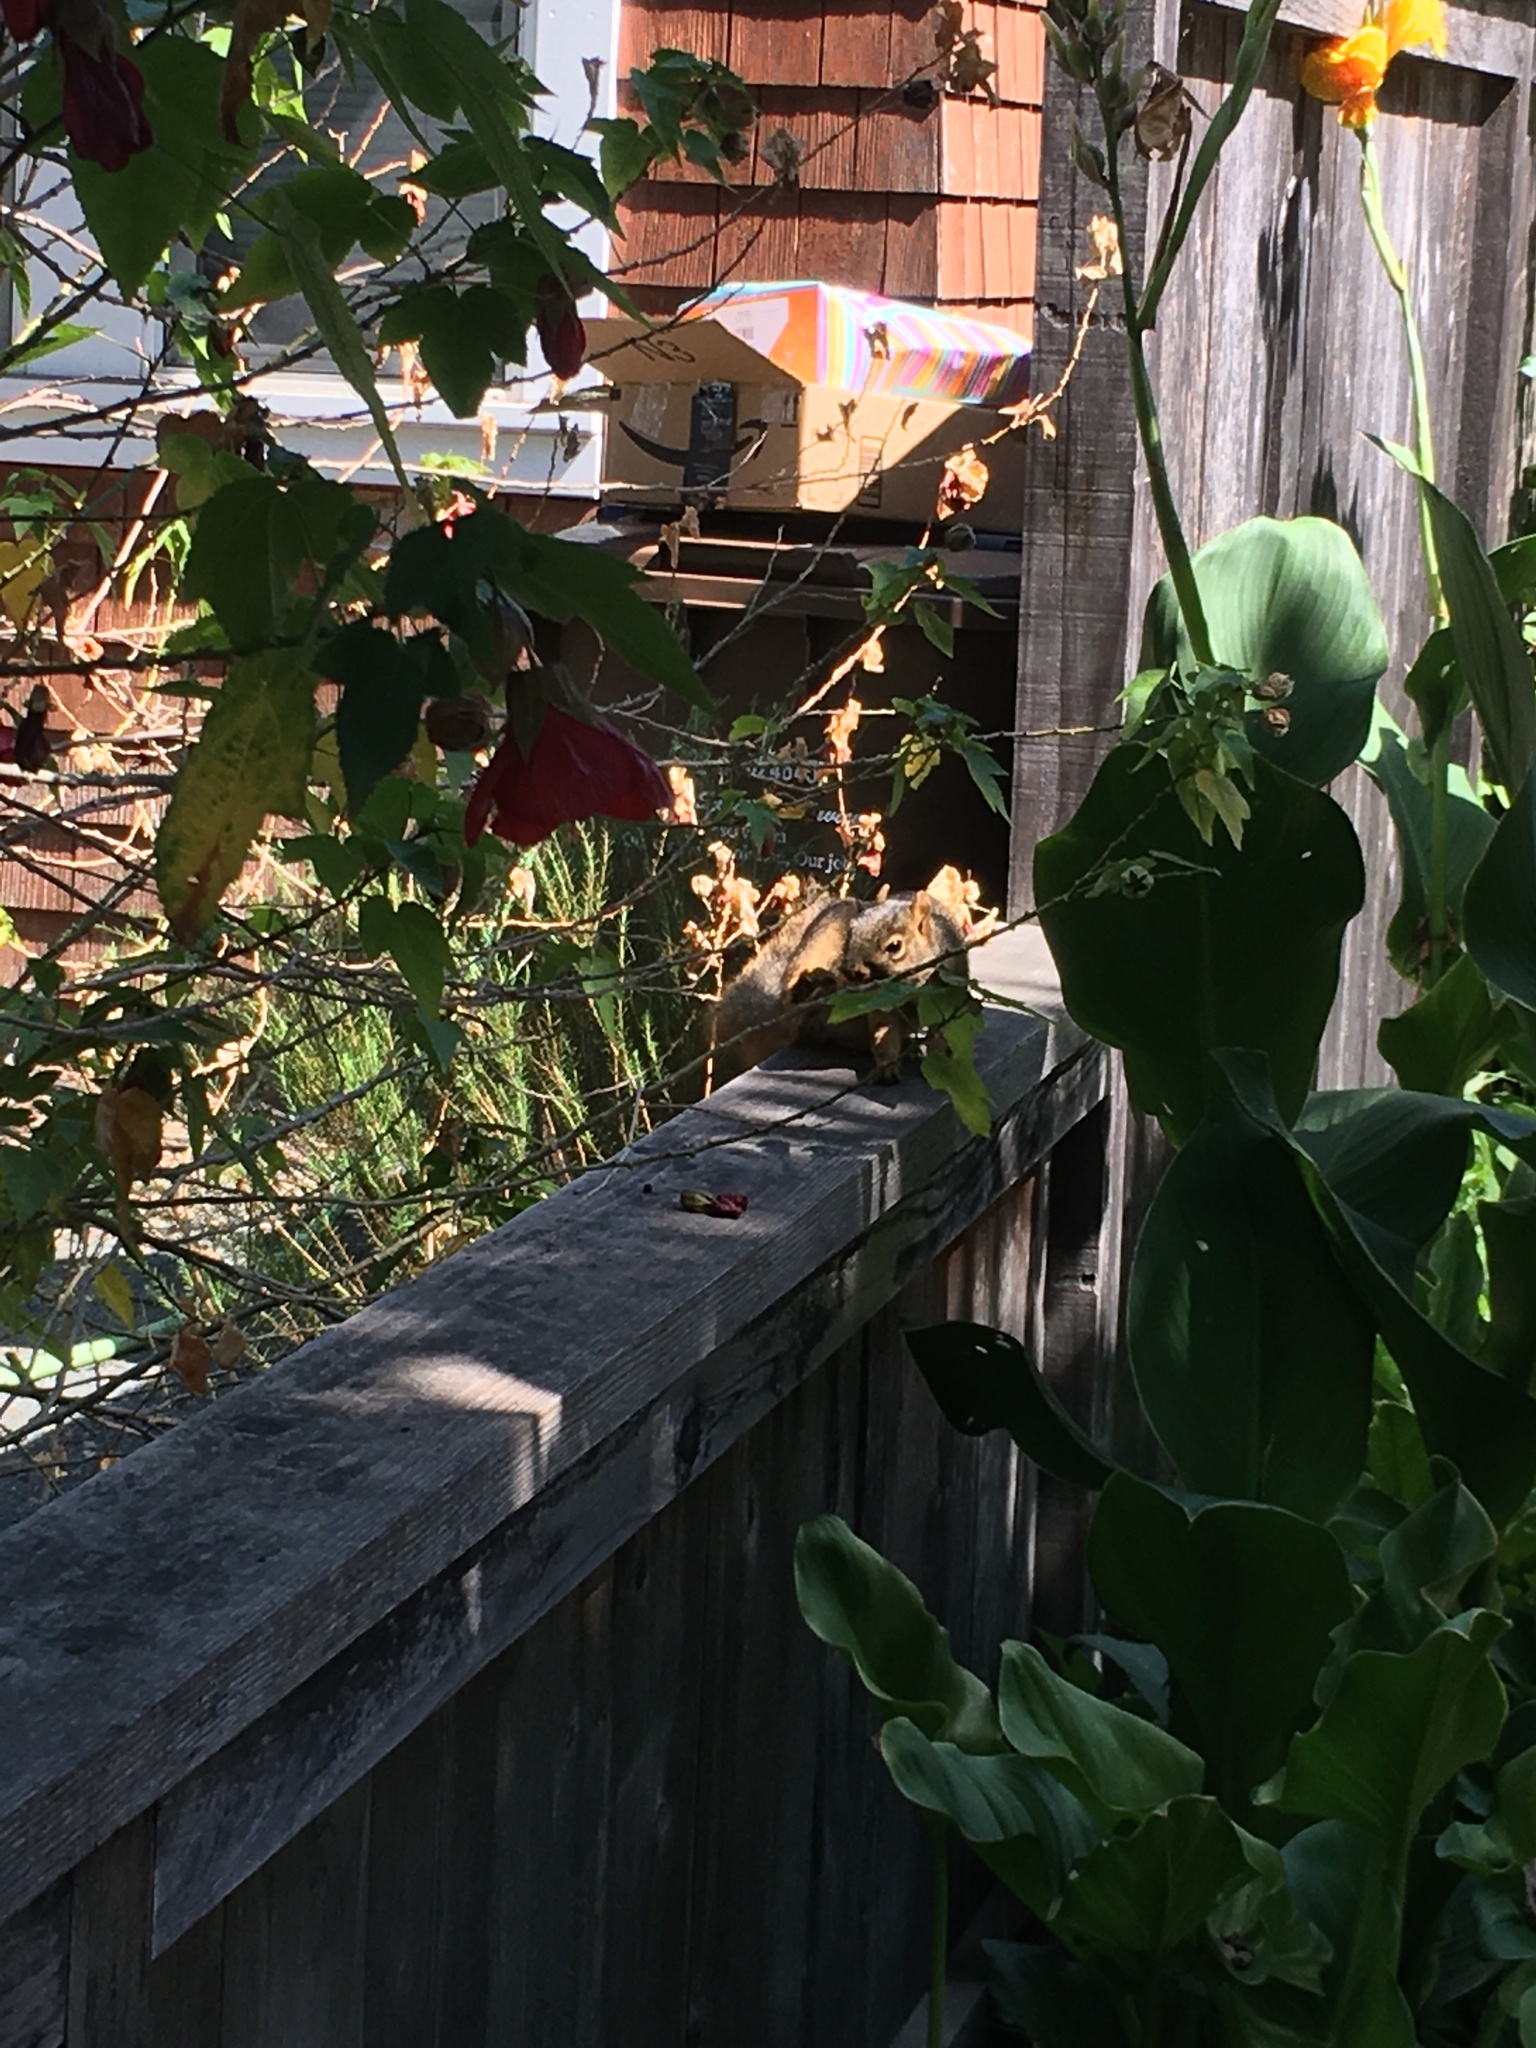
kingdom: Animalia
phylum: Chordata
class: Mammalia
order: Rodentia
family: Sciuridae
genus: Sciurus
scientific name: Sciurus niger
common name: Fox squirrel
